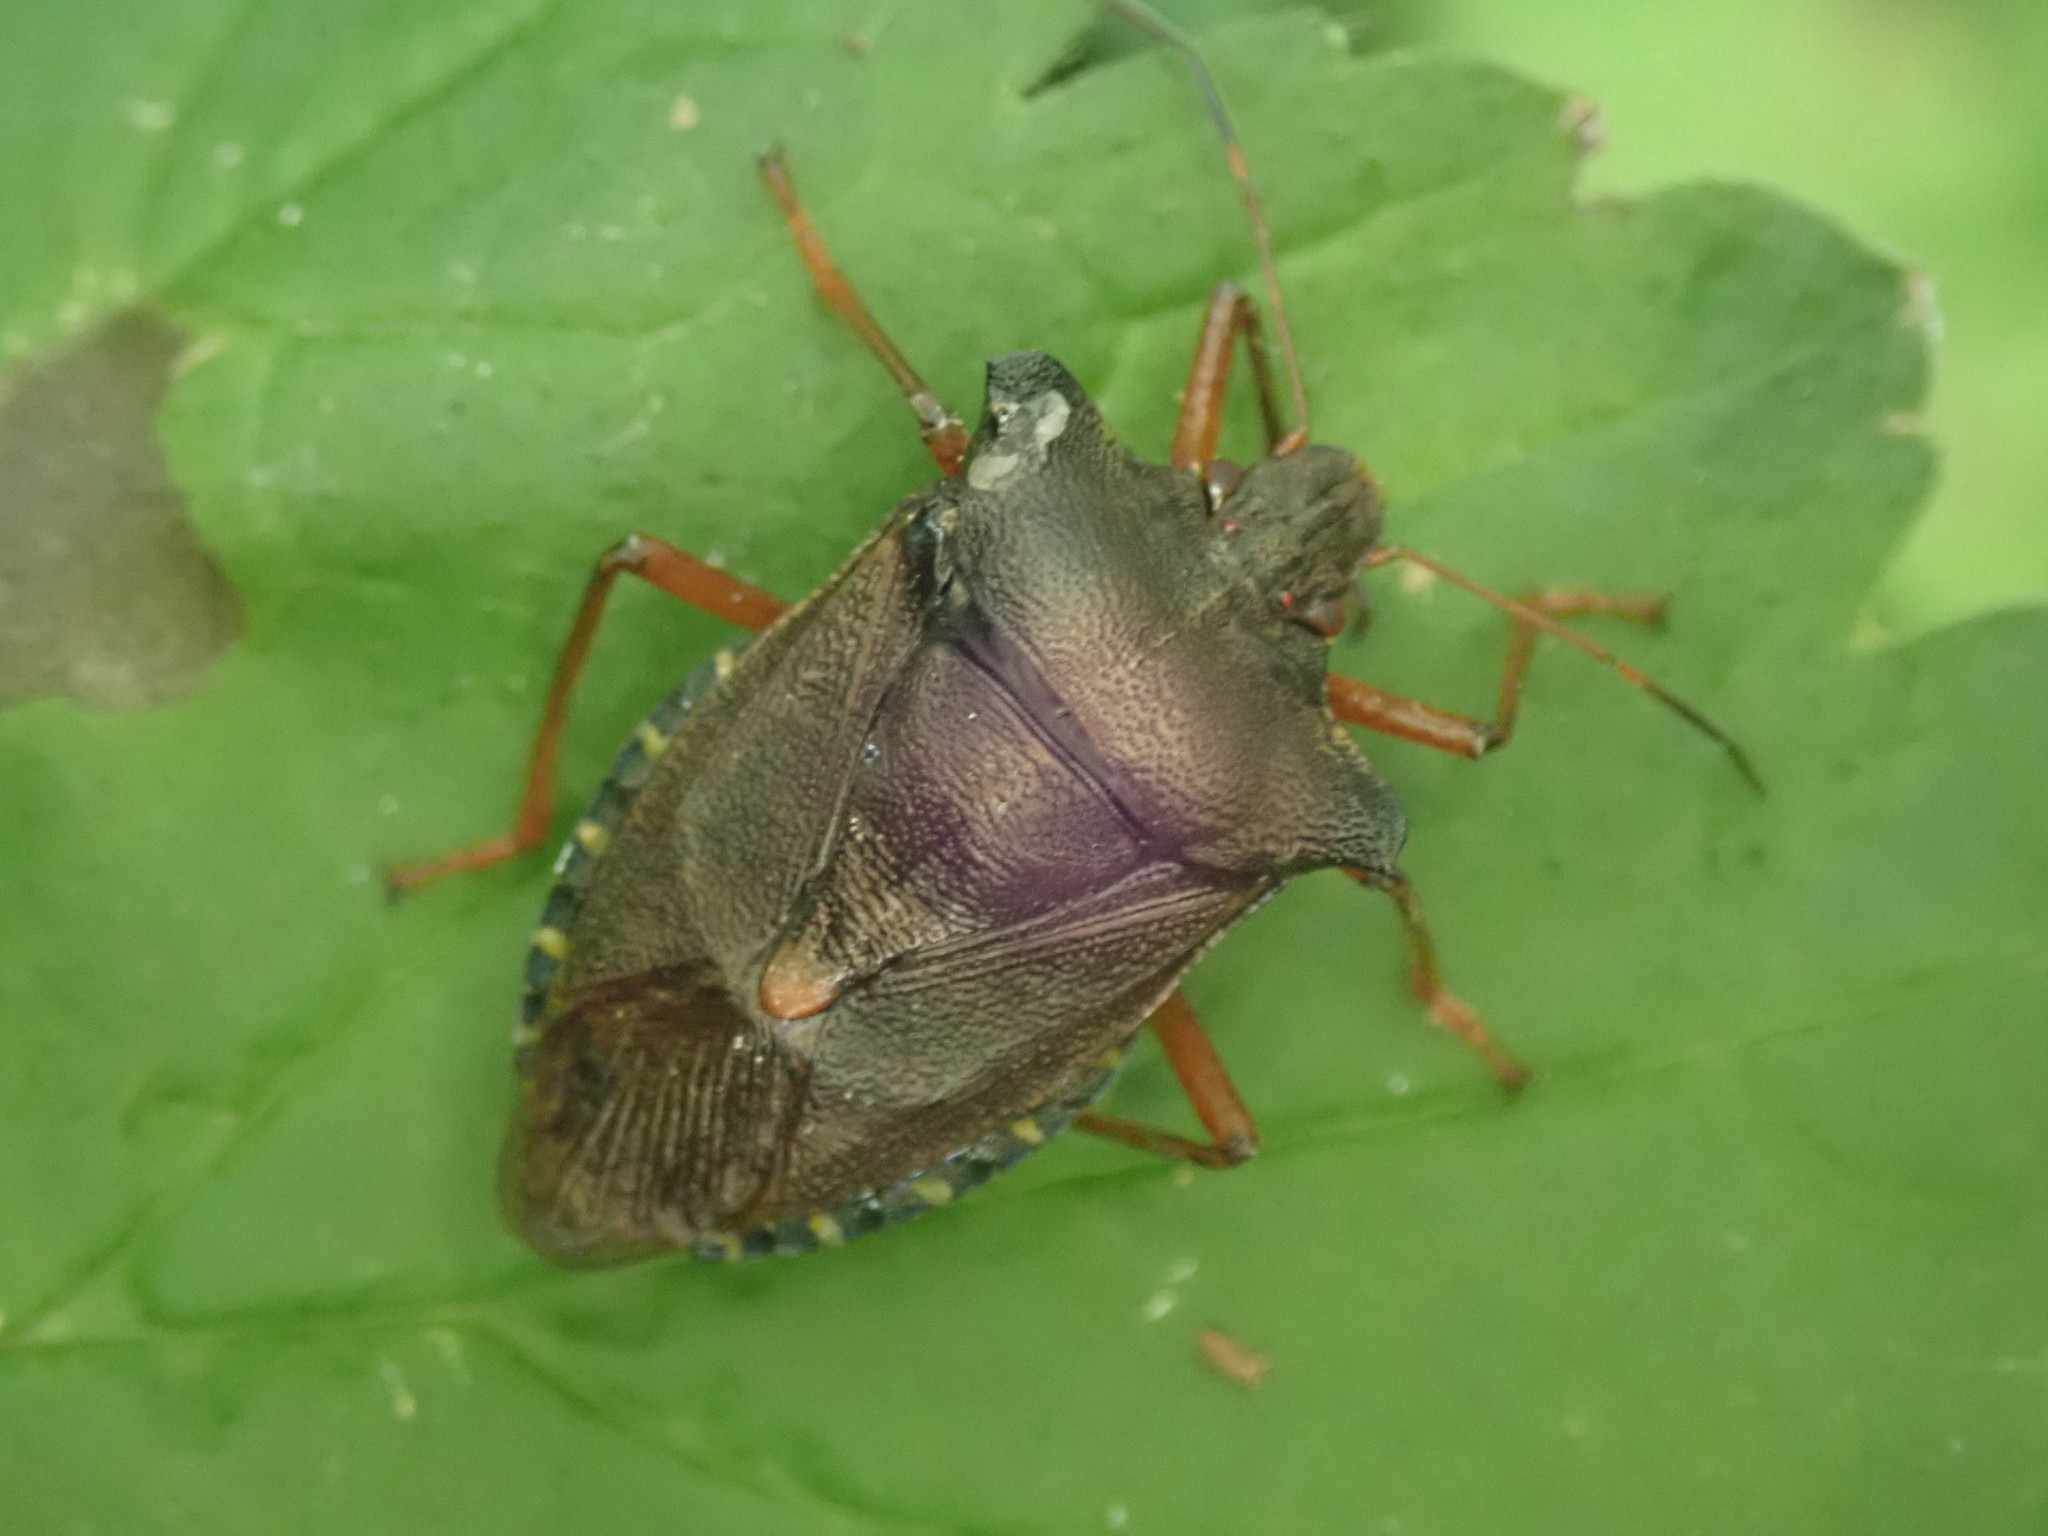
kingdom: Animalia
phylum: Arthropoda
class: Insecta
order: Hemiptera
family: Pentatomidae
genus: Pentatoma
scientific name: Pentatoma rufipes
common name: Forest bug
